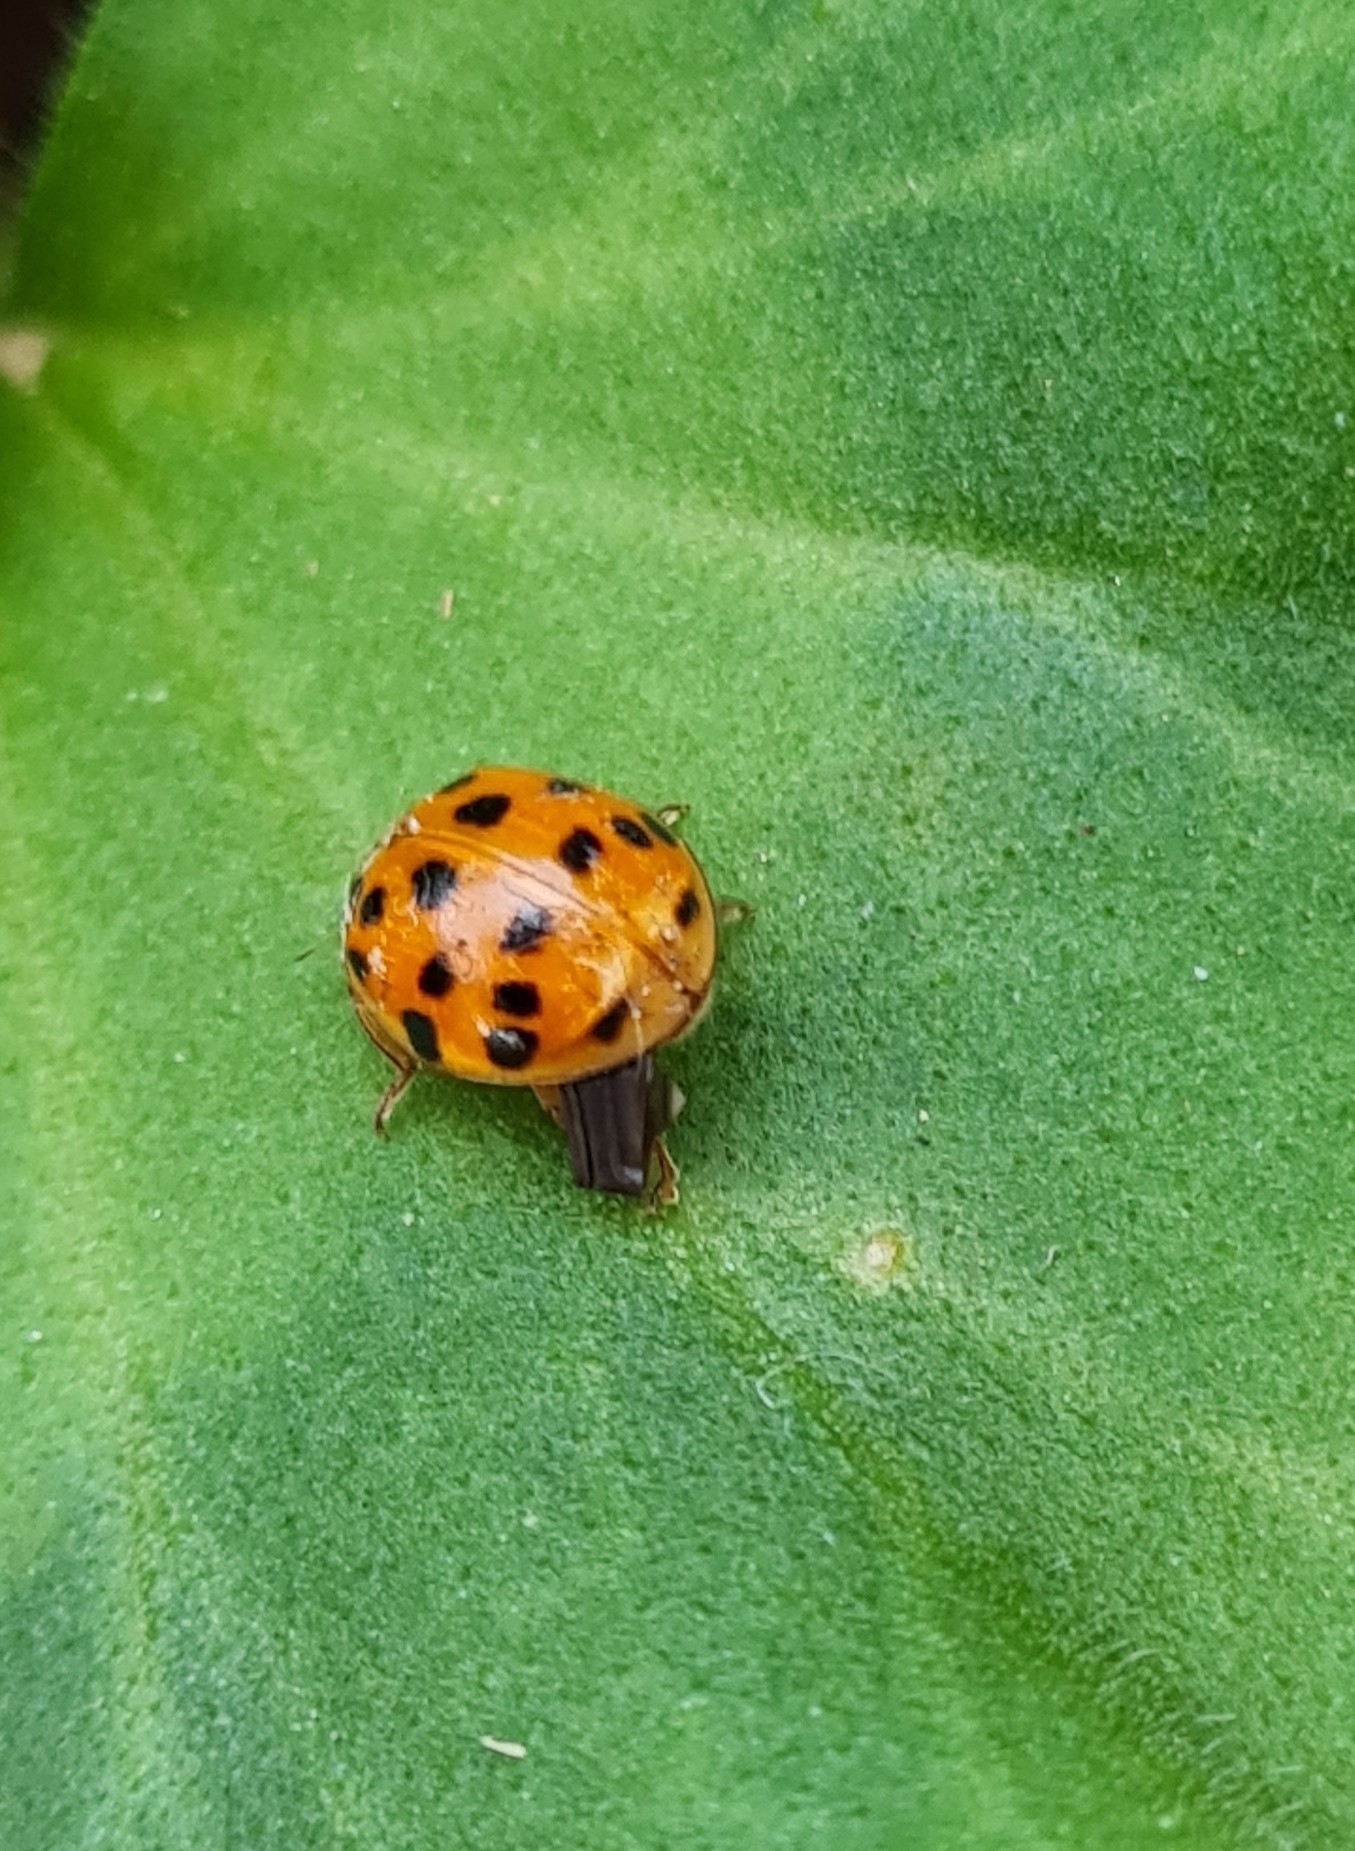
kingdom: Animalia
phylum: Arthropoda
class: Insecta
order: Coleoptera
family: Coccinellidae
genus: Harmonia
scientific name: Harmonia axyridis
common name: Harlequin ladybird
